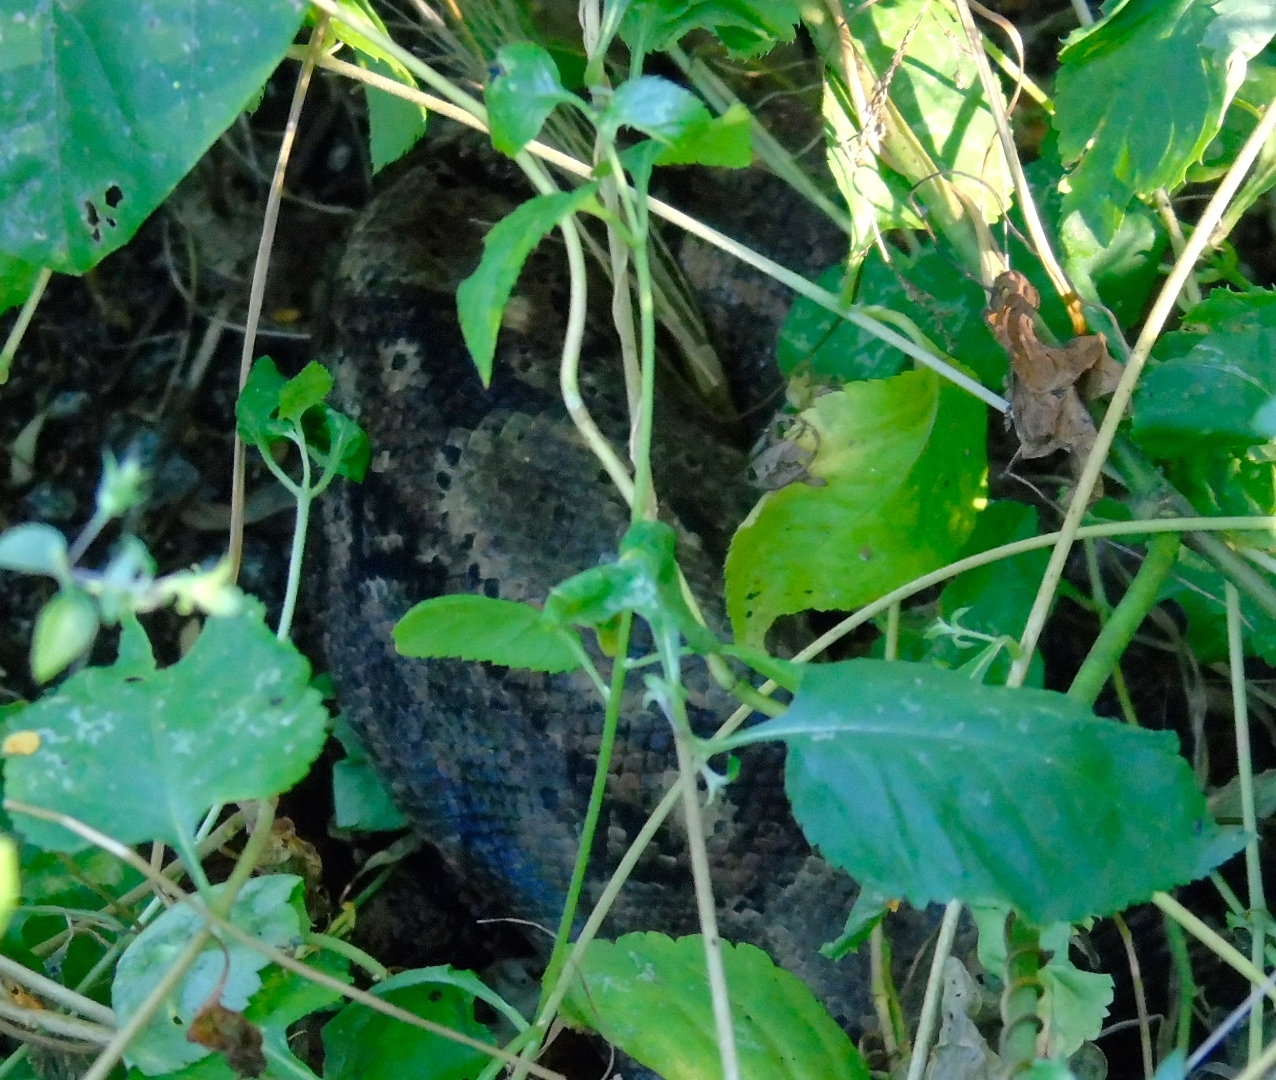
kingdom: Animalia
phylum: Chordata
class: Squamata
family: Boidae
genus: Boa
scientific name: Boa
